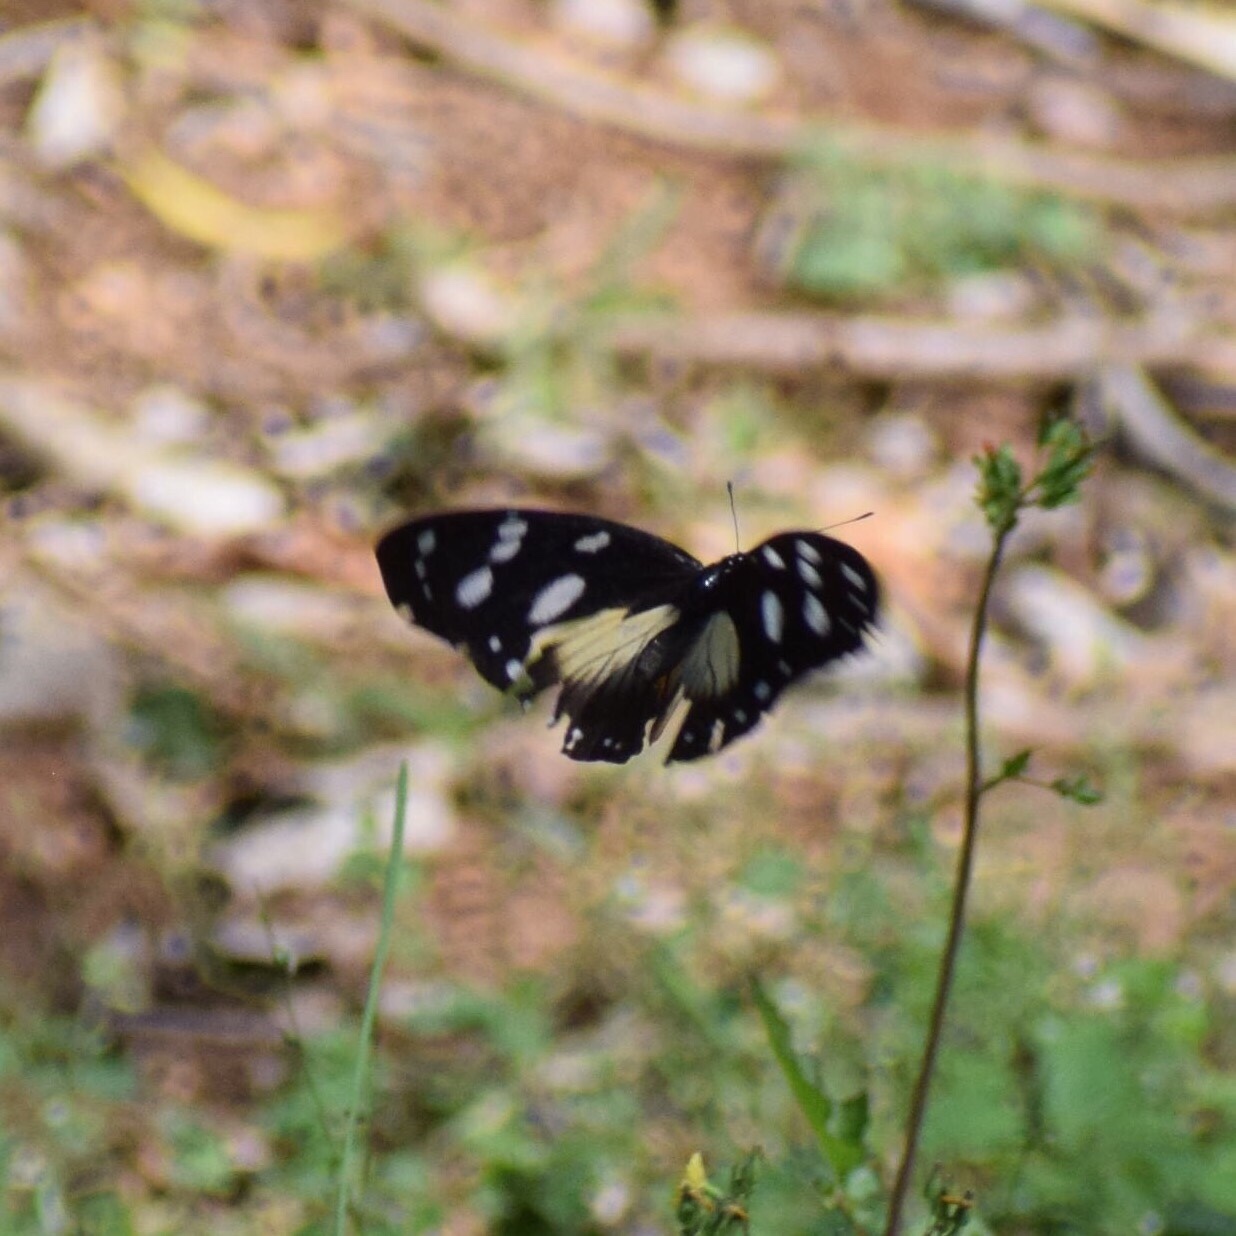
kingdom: Animalia
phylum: Arthropoda
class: Insecta
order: Lepidoptera
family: Nymphalidae
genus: Hypolimnas
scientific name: Hypolimnas dubius
